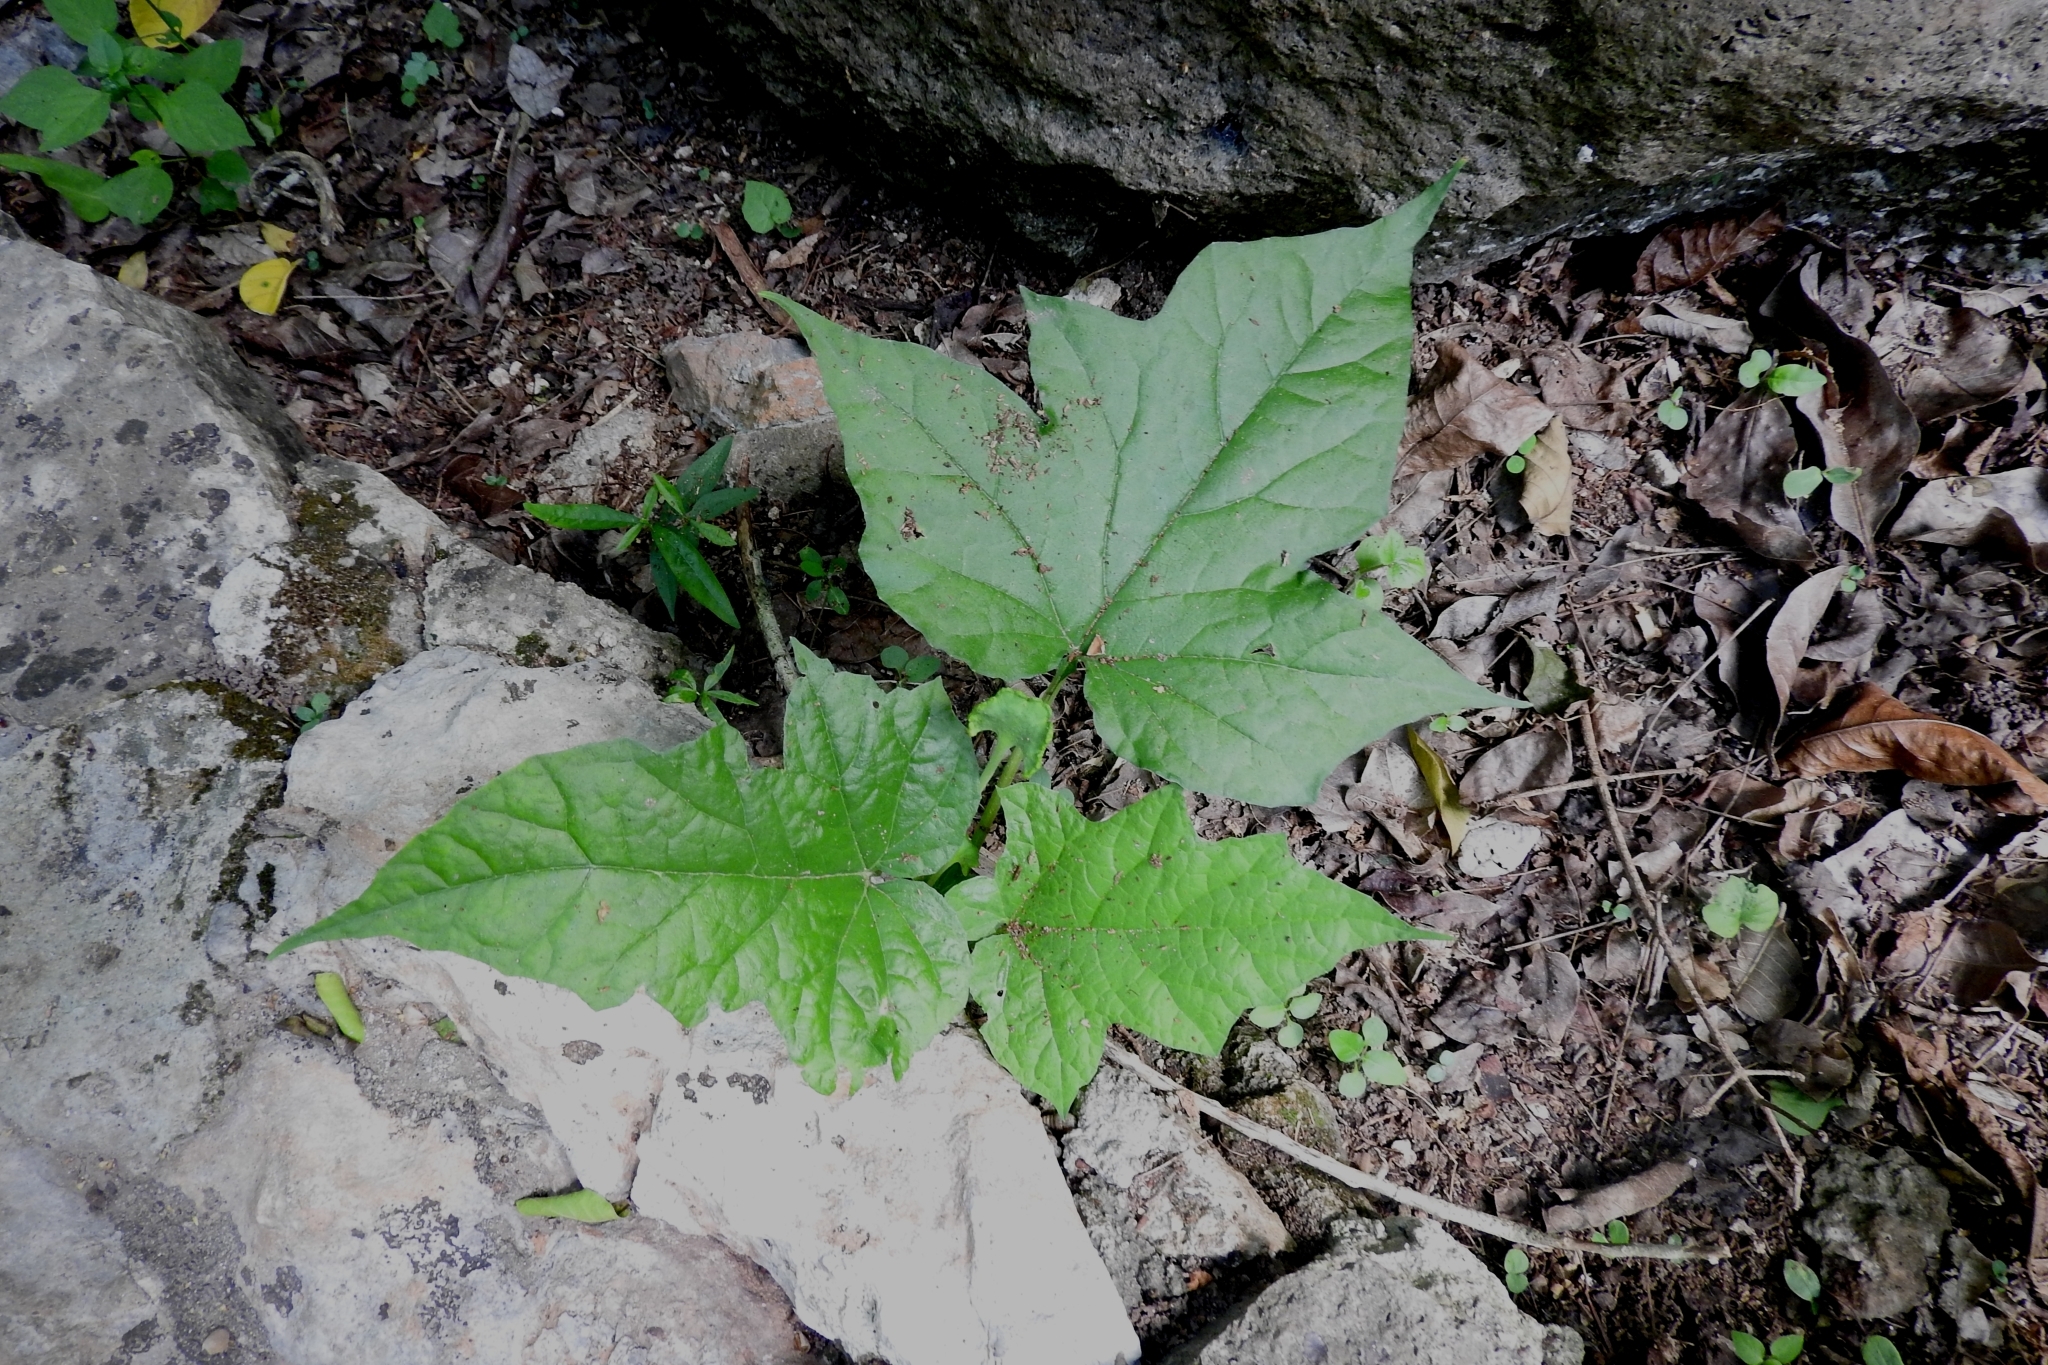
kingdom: Plantae
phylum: Tracheophyta
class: Magnoliopsida
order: Rosales
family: Moraceae
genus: Dorstenia
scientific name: Dorstenia contrajerva
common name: Tusilla
